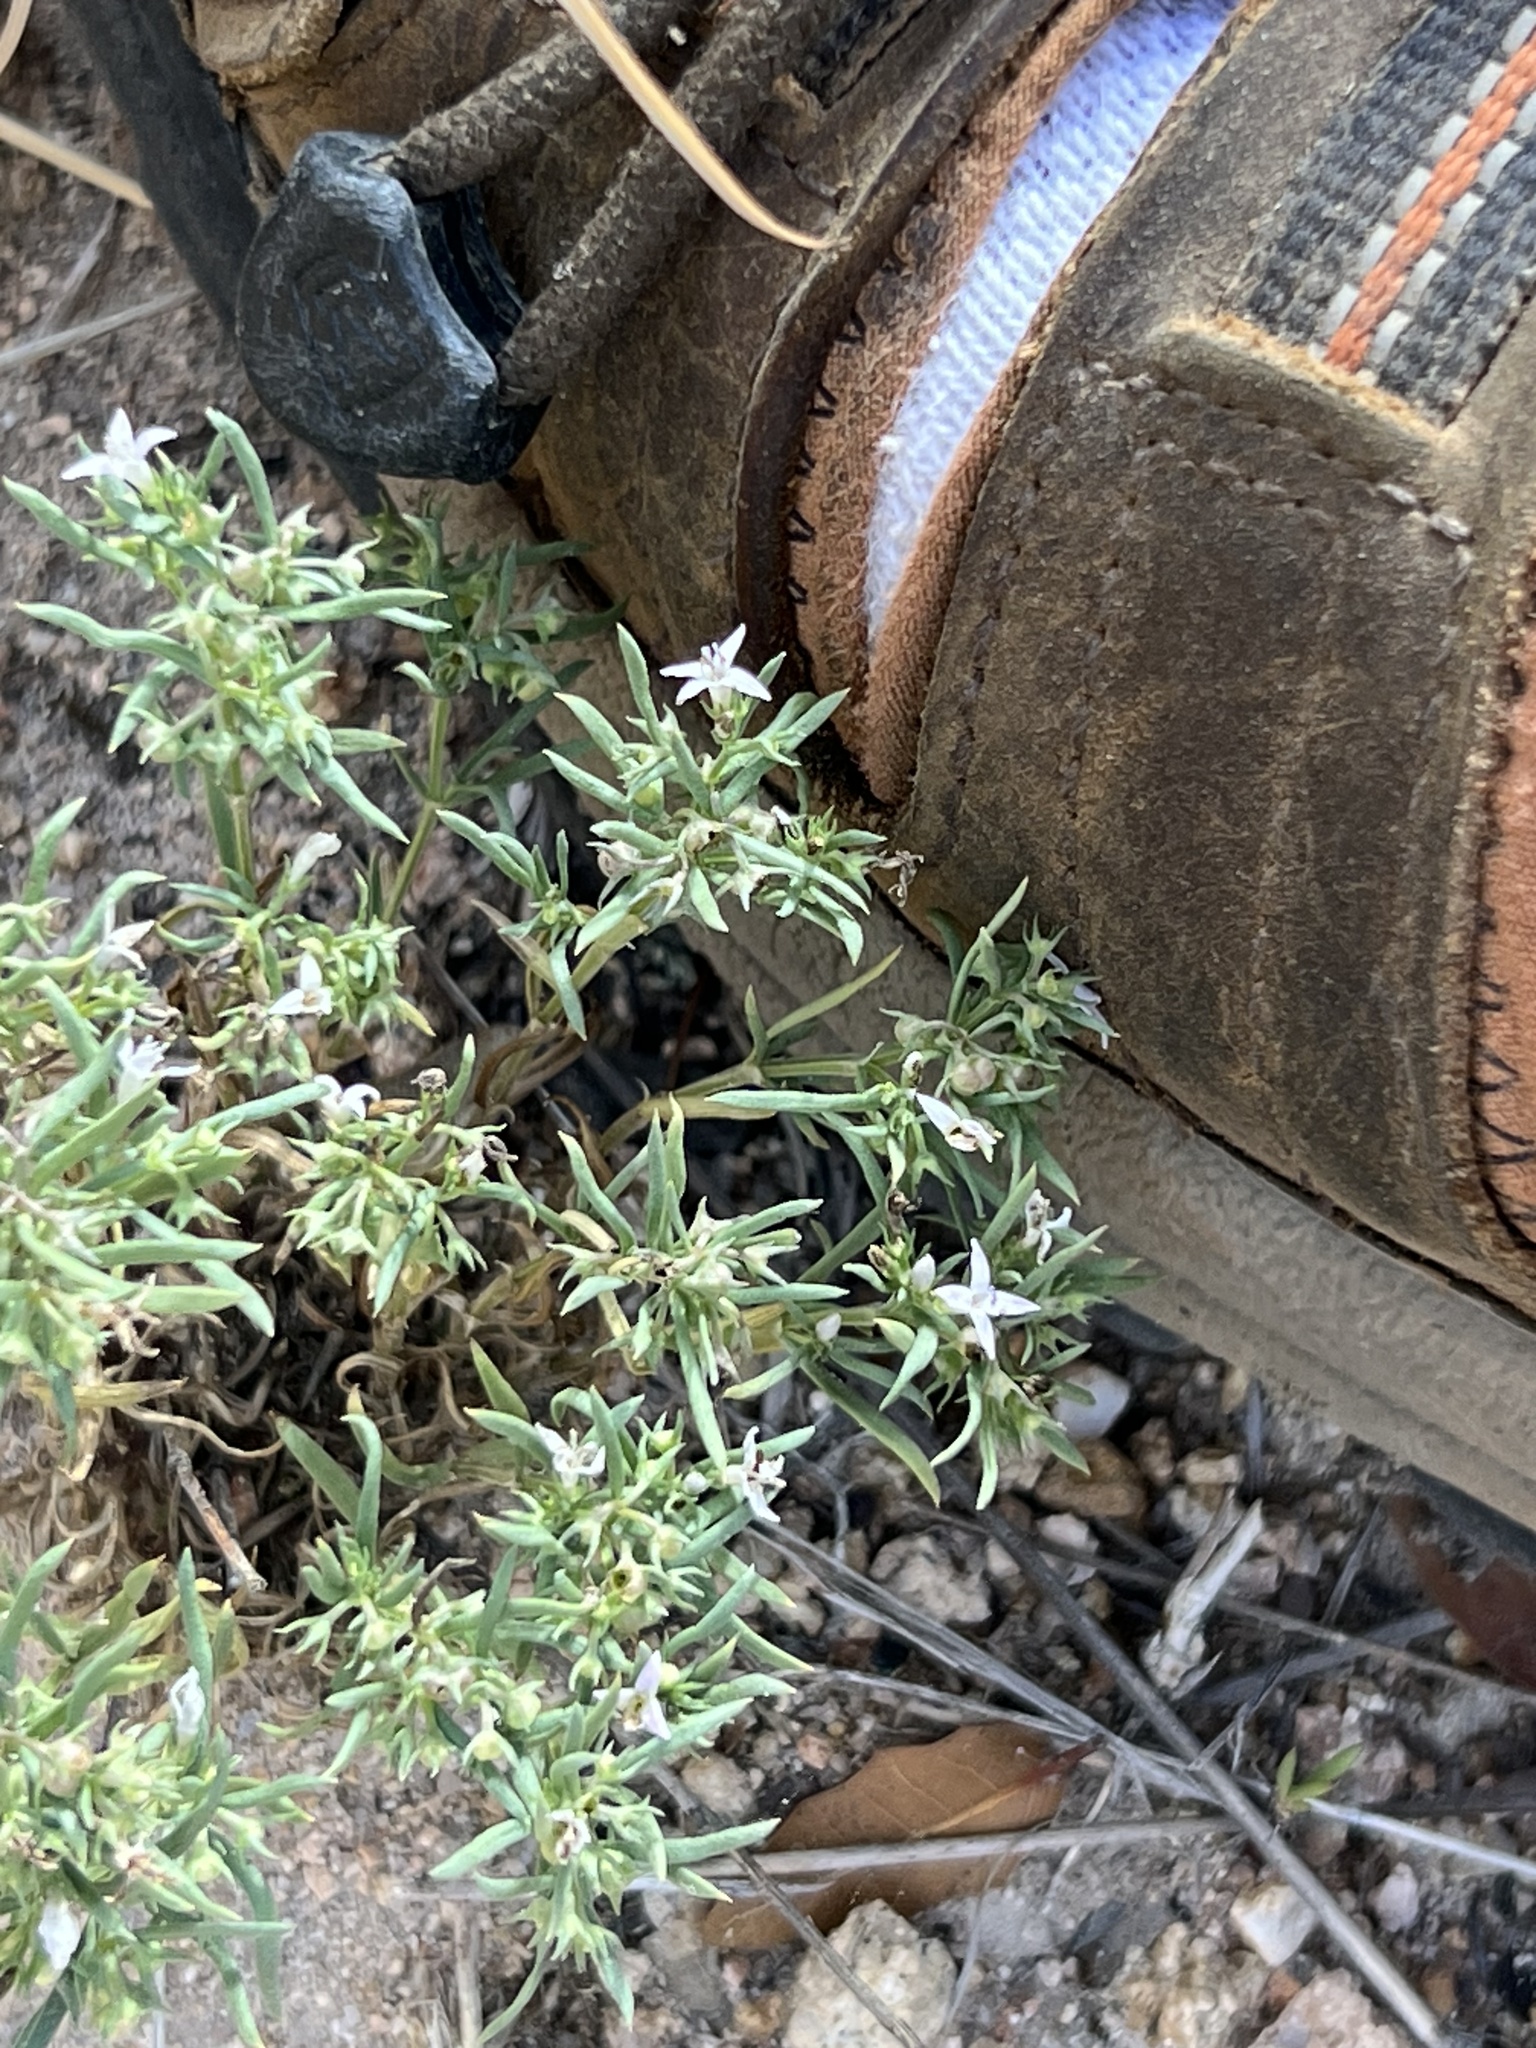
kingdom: Plantae
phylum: Tracheophyta
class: Magnoliopsida
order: Gentianales
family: Rubiaceae
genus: Houstonia
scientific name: Houstonia wrightii
